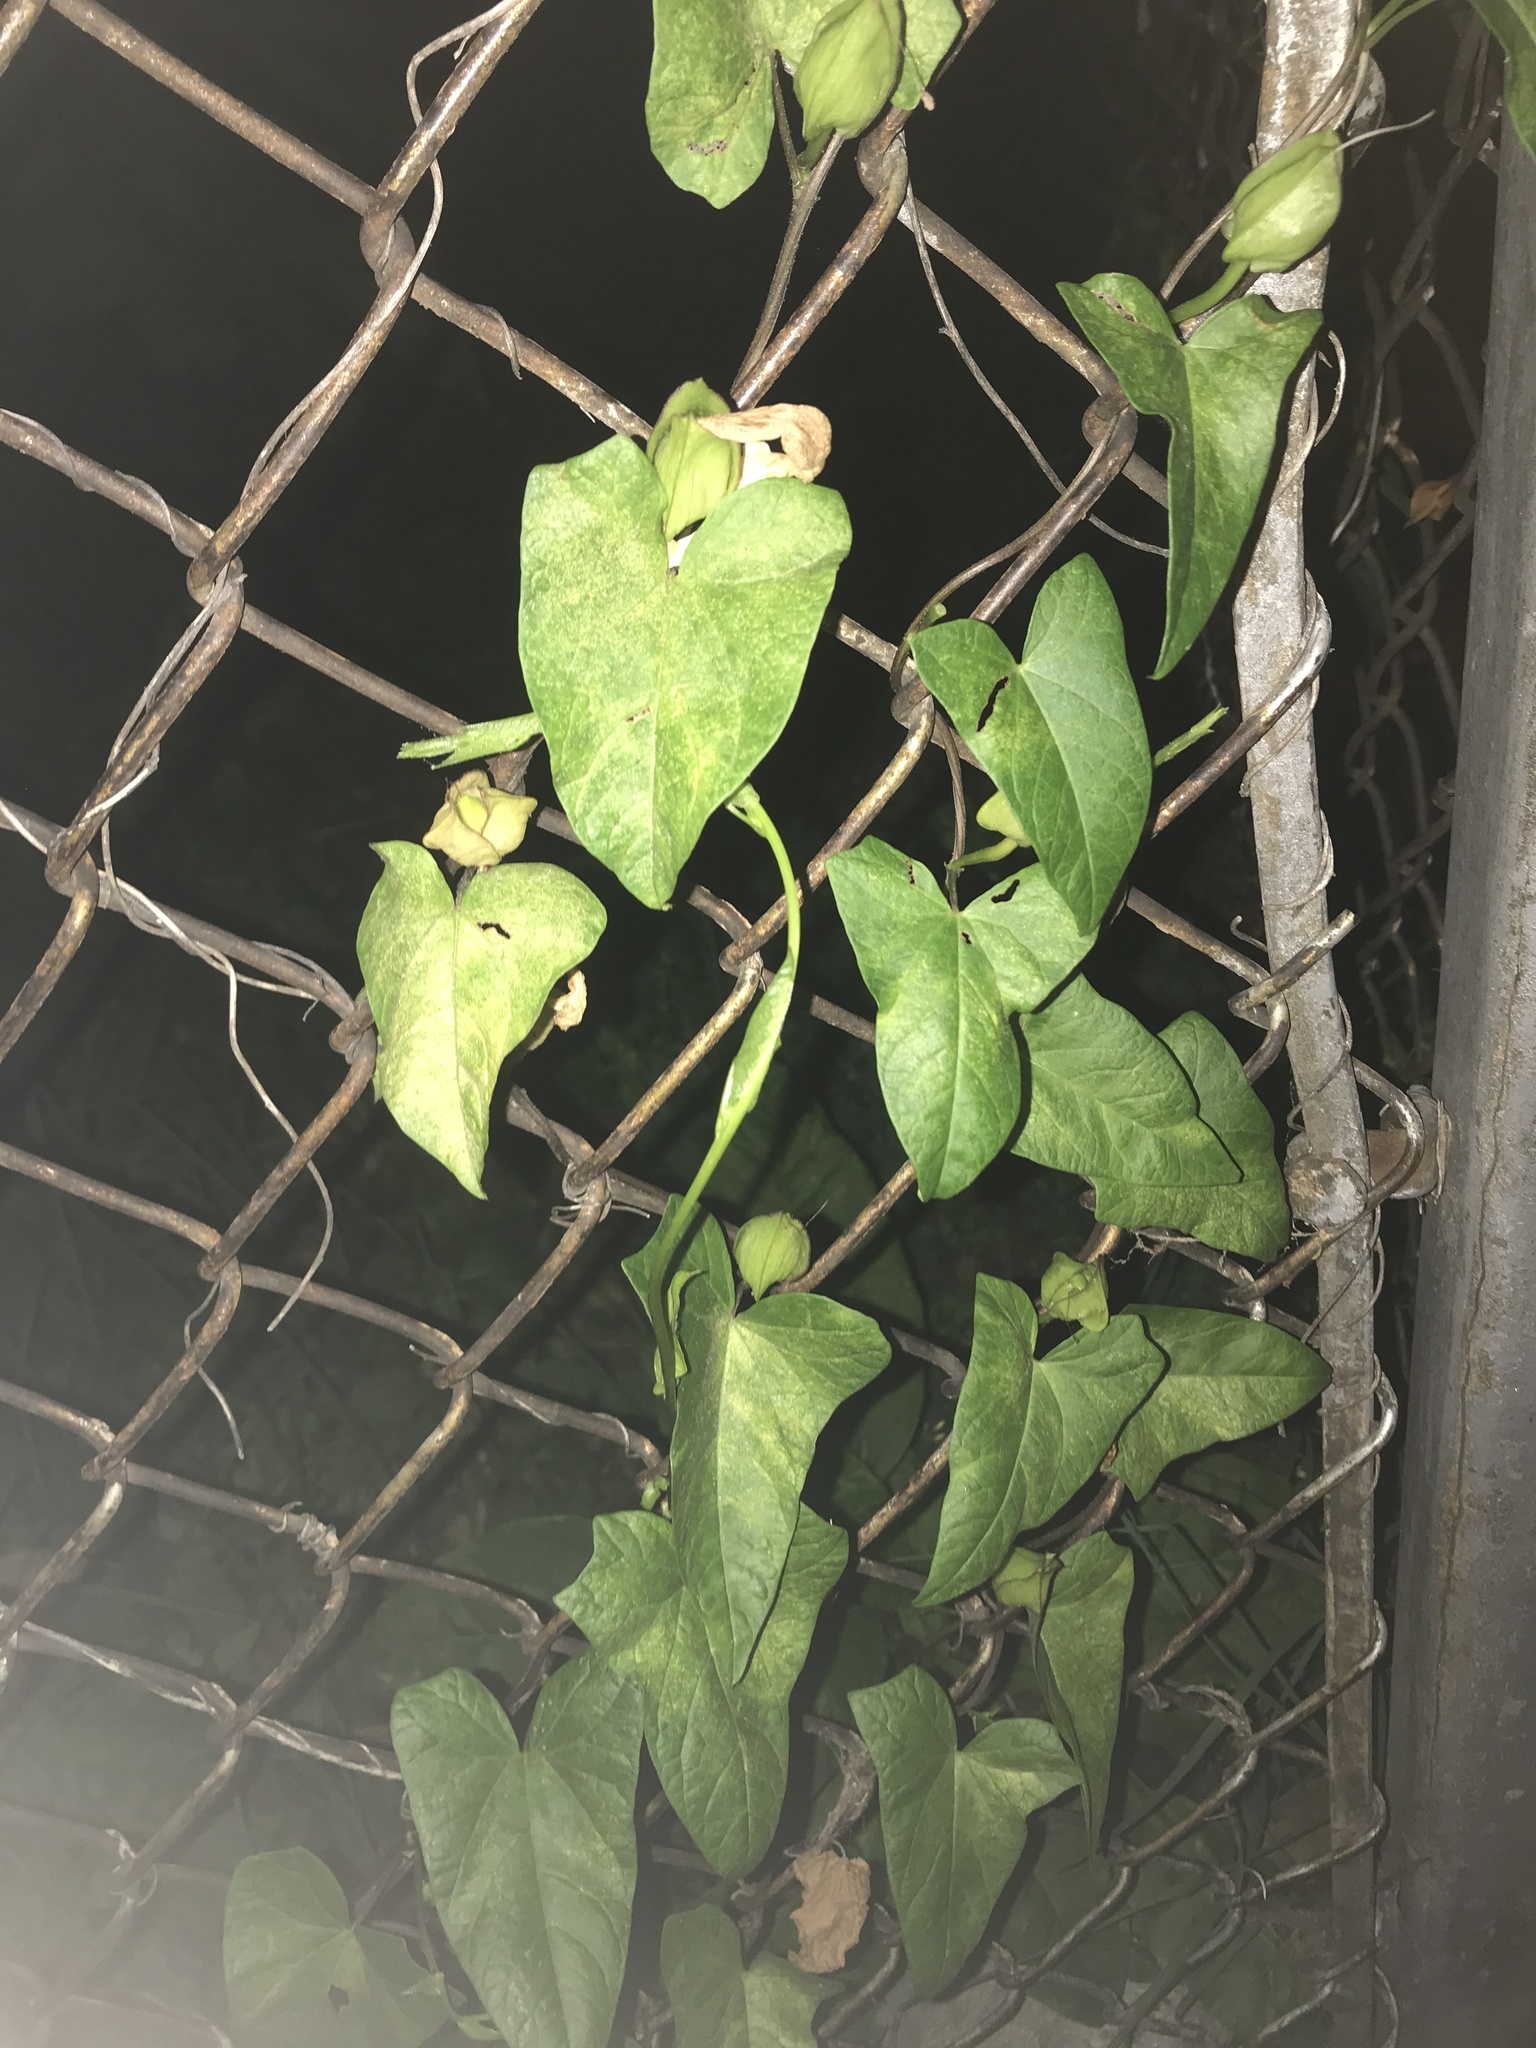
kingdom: Plantae
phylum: Tracheophyta
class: Magnoliopsida
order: Solanales
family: Convolvulaceae
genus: Calystegia
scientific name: Calystegia sepium
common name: Hedge bindweed
